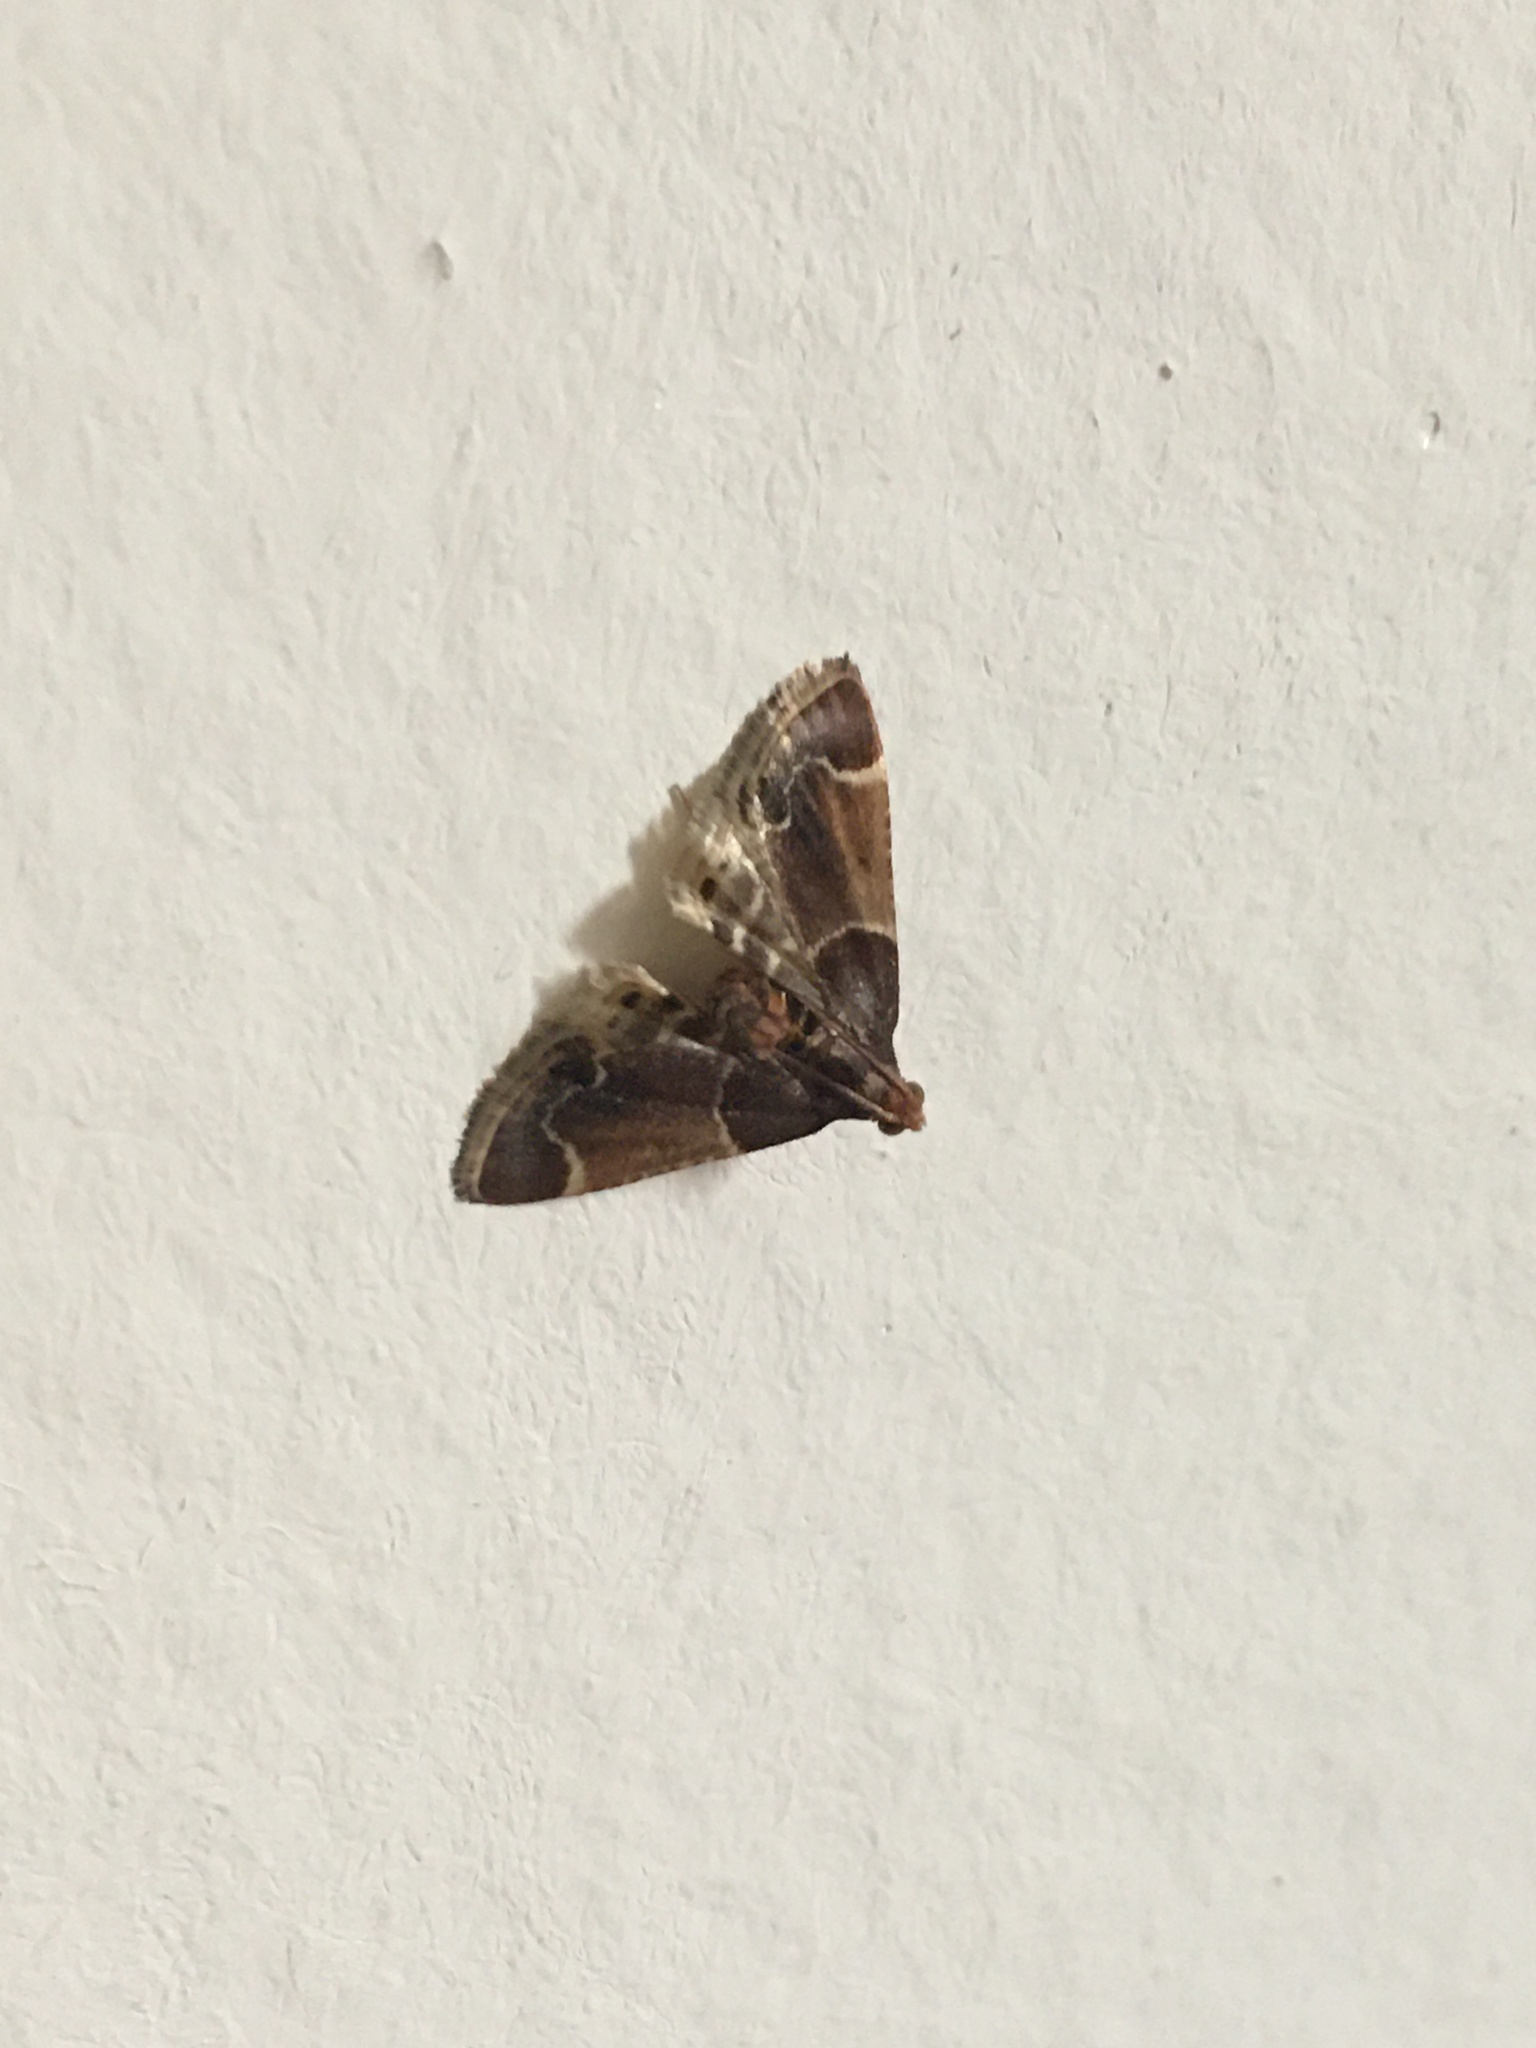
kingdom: Animalia
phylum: Arthropoda
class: Insecta
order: Lepidoptera
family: Pyralidae
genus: Pyralis
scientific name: Pyralis farinalis
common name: Meal moth
